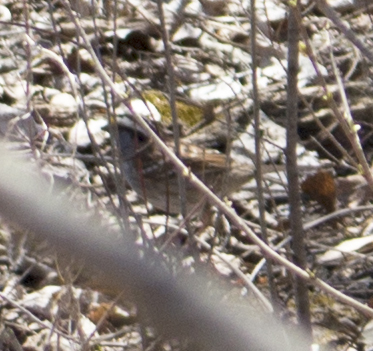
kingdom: Animalia
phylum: Chordata
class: Aves
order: Passeriformes
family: Passerellidae
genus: Zonotrichia
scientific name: Zonotrichia albicollis
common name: White-throated sparrow
